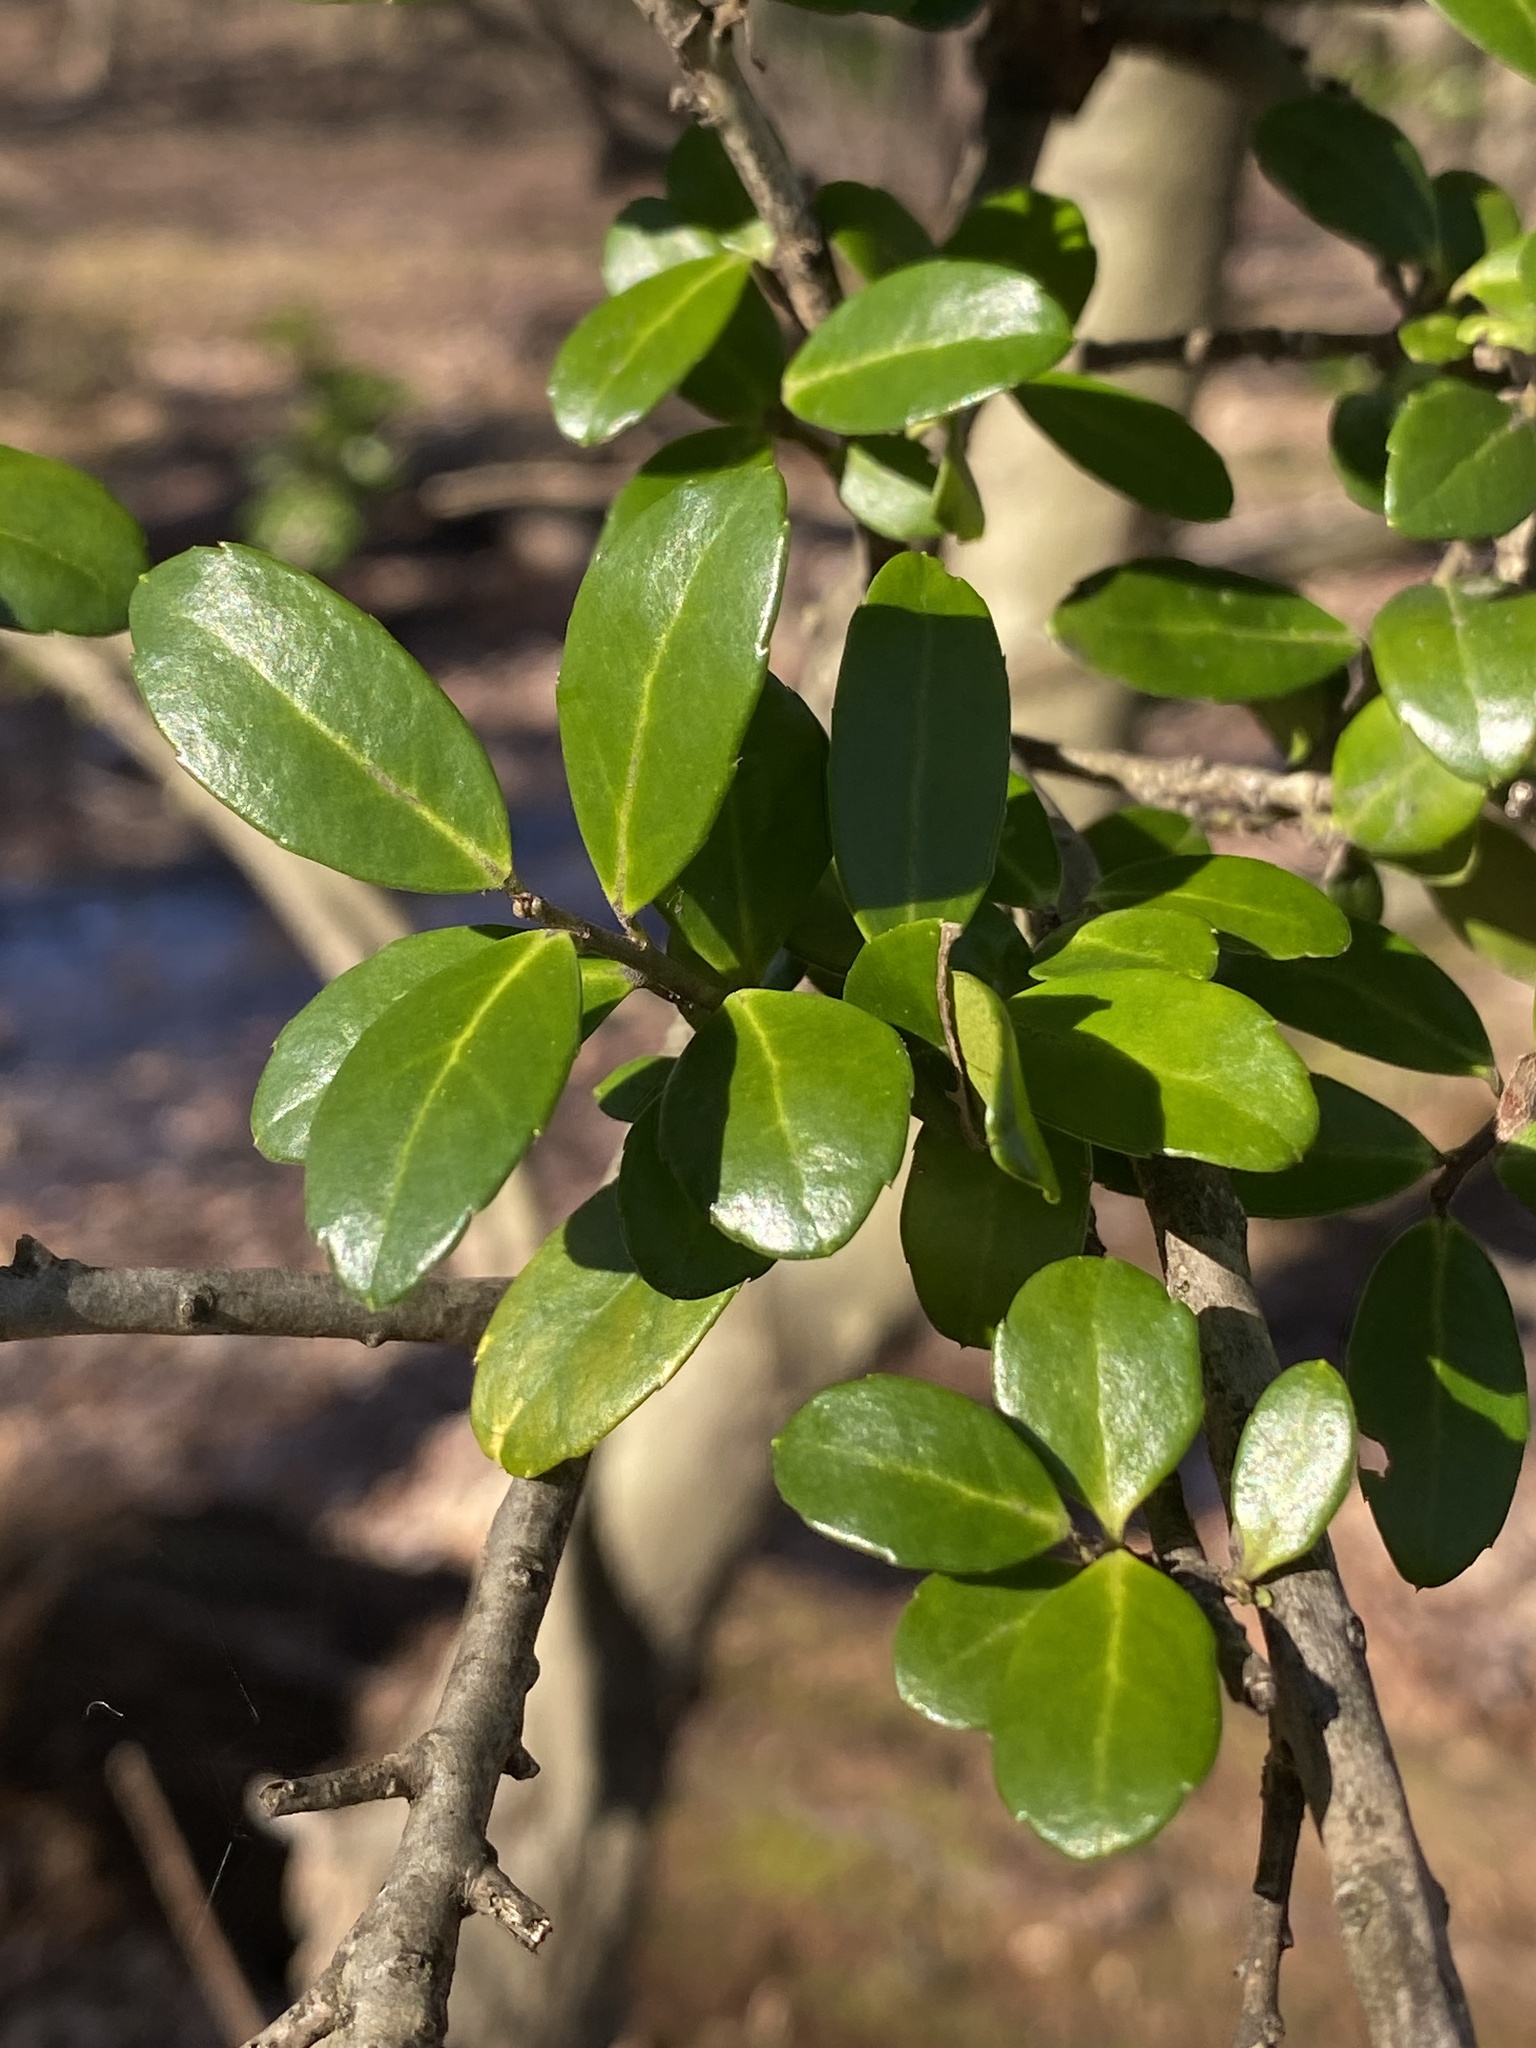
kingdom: Plantae
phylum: Tracheophyta
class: Magnoliopsida
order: Aquifoliales
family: Aquifoliaceae
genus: Ilex
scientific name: Ilex crenata
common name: Japanese holly
